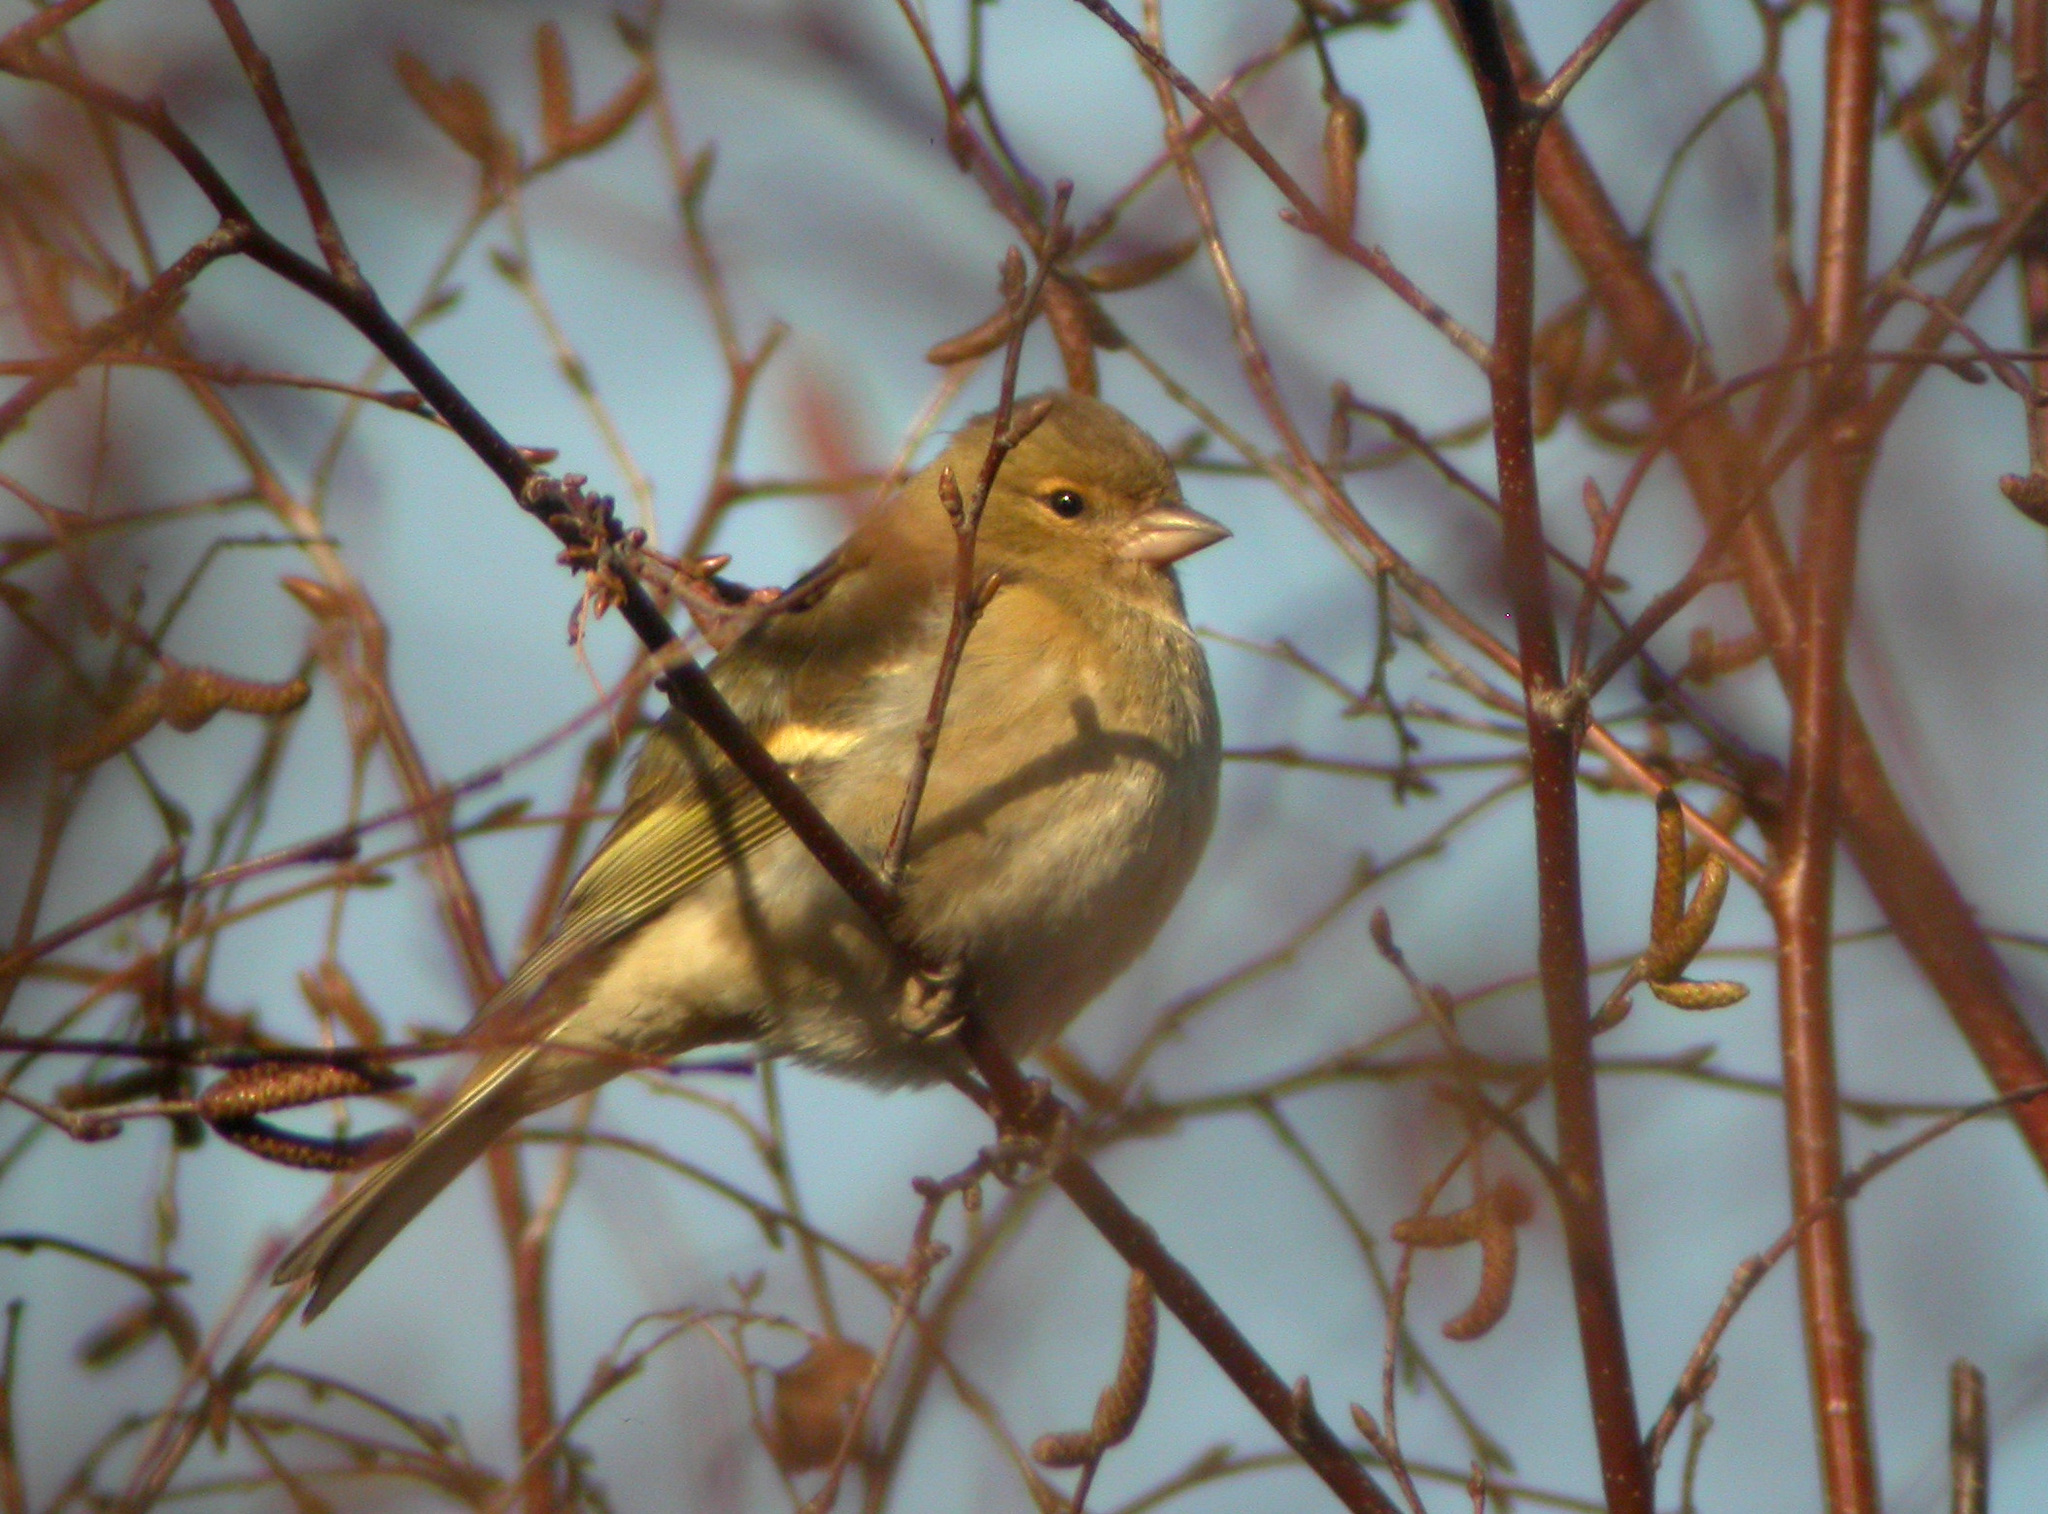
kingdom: Animalia
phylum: Chordata
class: Aves
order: Passeriformes
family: Fringillidae
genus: Fringilla
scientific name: Fringilla coelebs
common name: Common chaffinch
